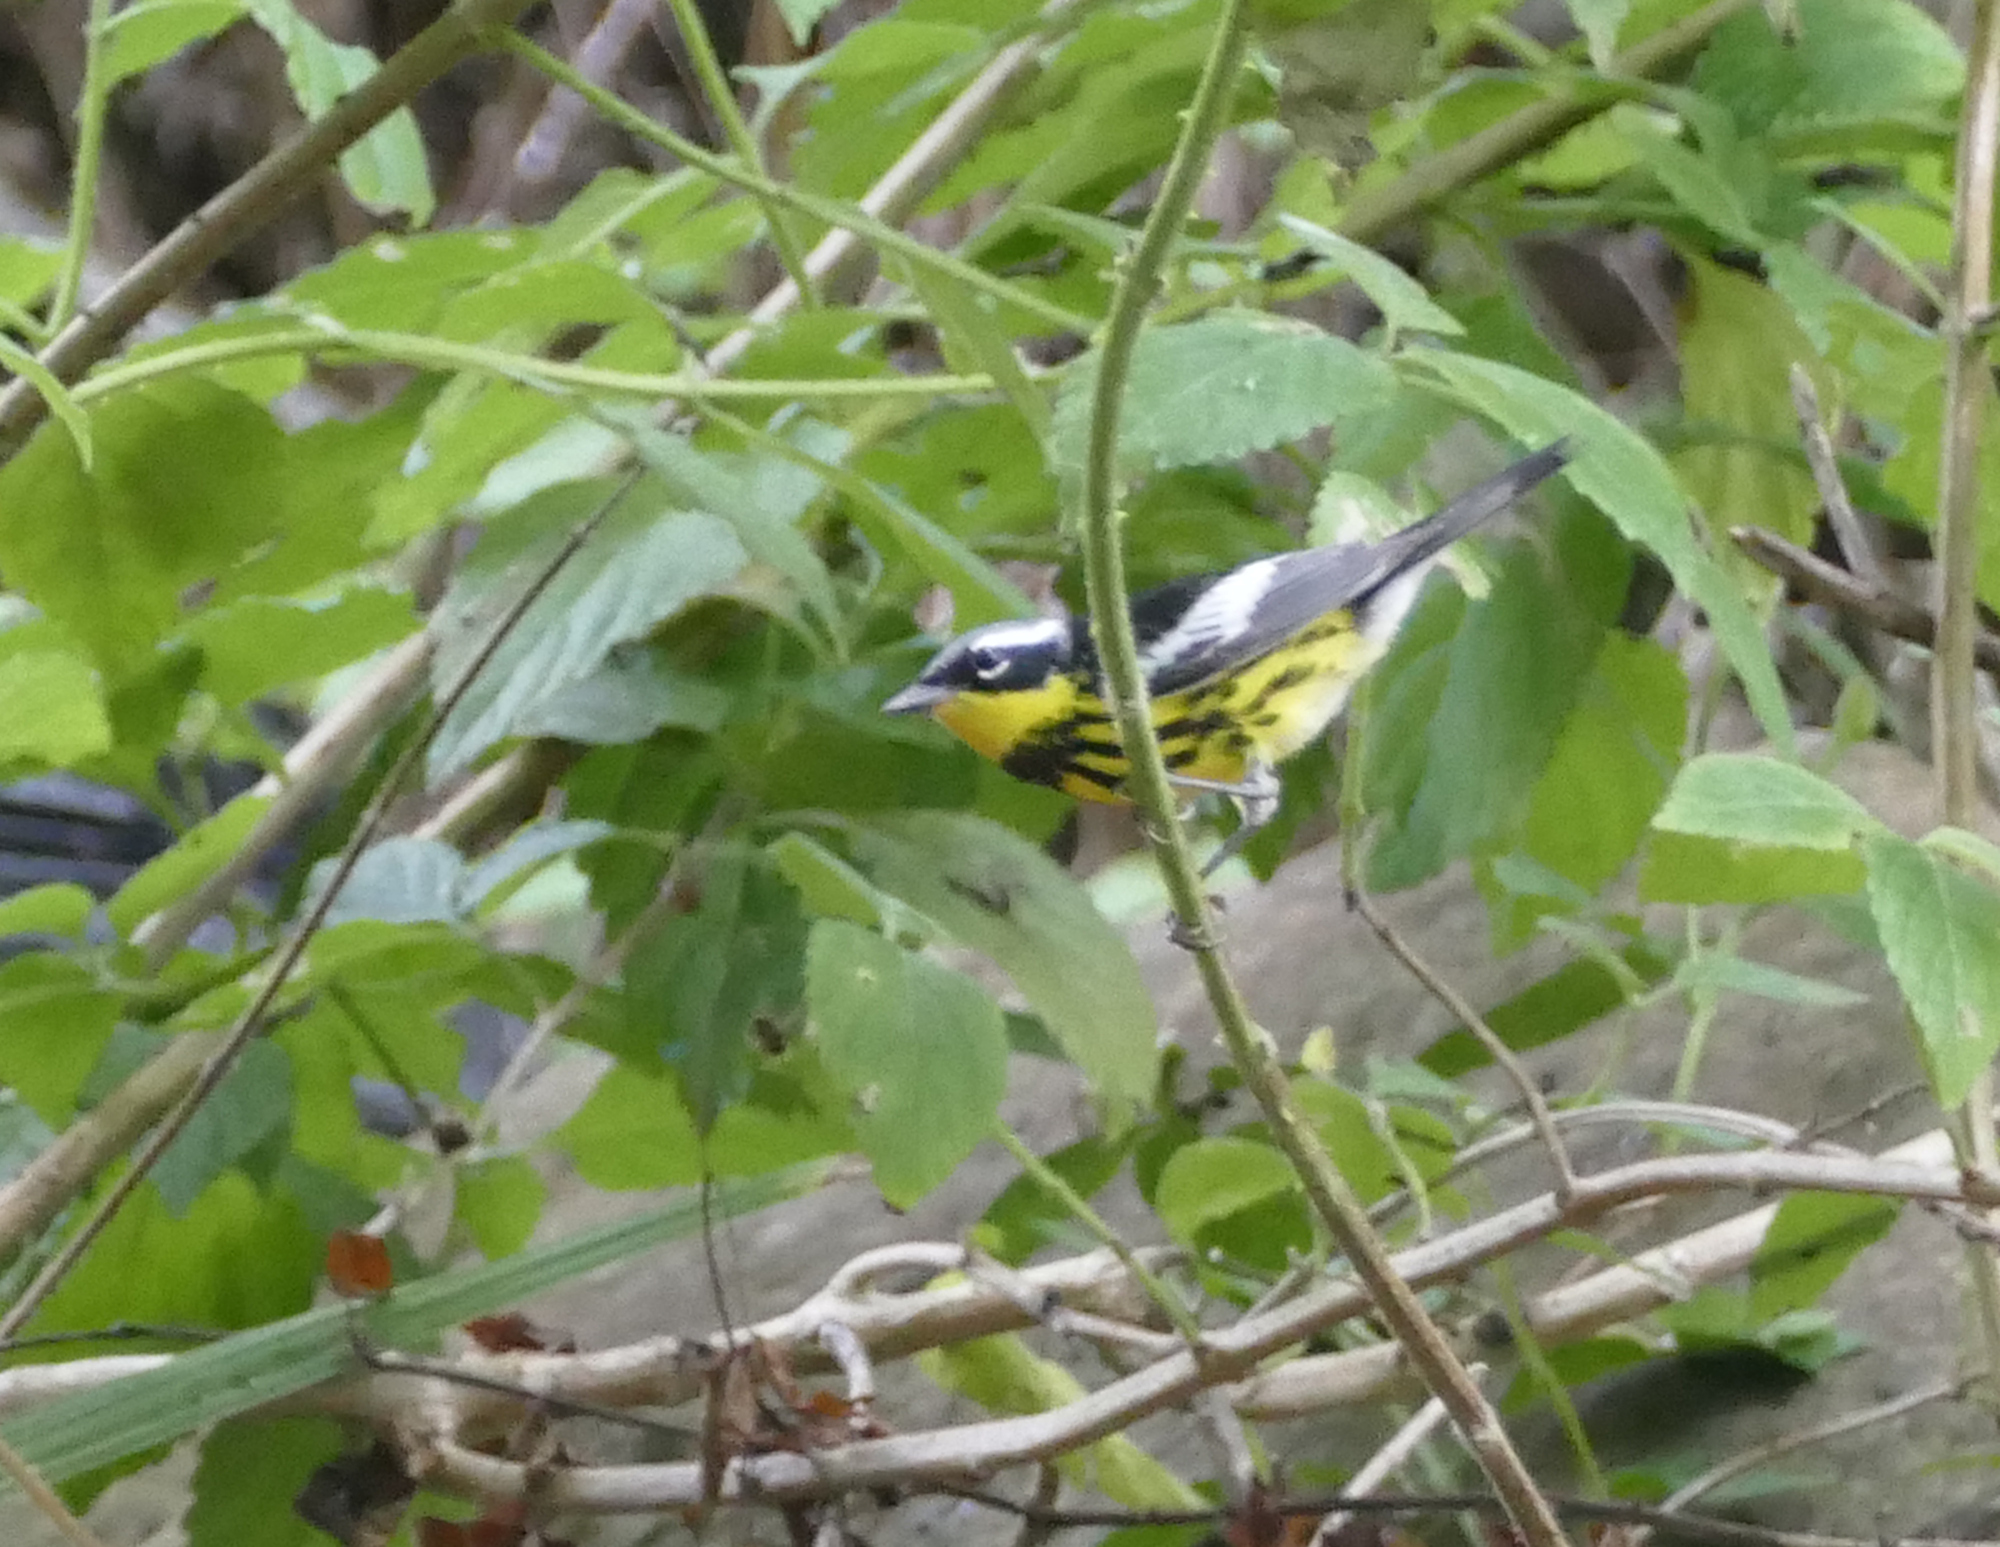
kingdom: Animalia
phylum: Chordata
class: Aves
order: Passeriformes
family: Parulidae
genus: Setophaga
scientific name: Setophaga magnolia
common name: Magnolia warbler
